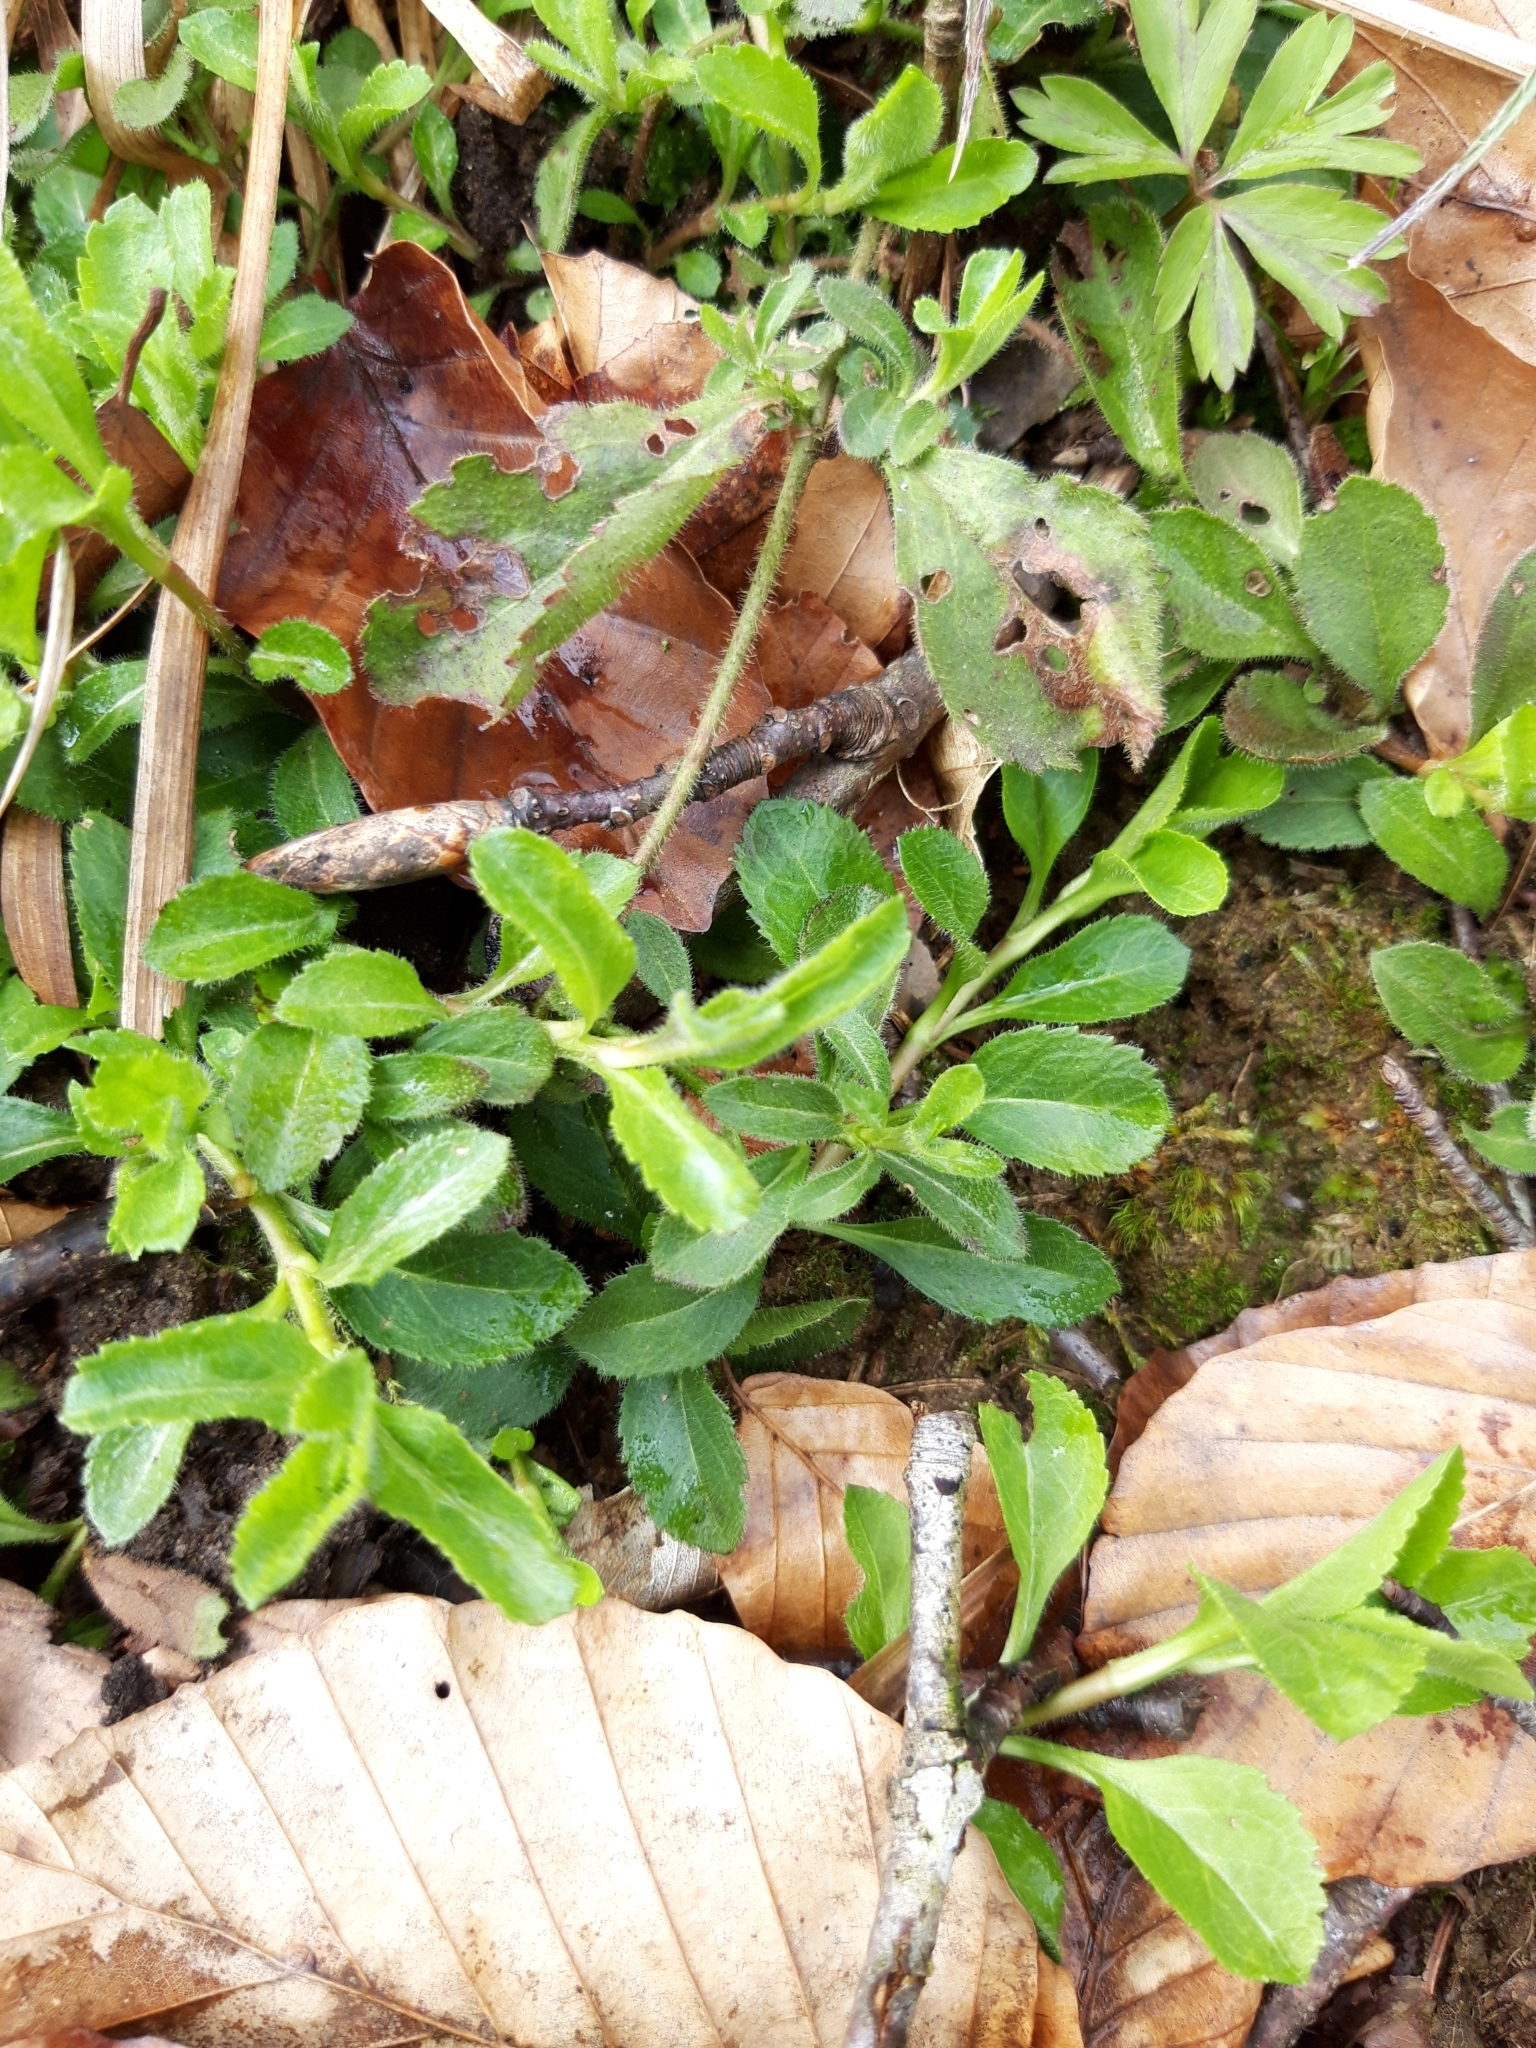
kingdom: Plantae
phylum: Tracheophyta
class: Magnoliopsida
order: Lamiales
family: Plantaginaceae
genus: Veronica
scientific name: Veronica officinalis
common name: Common speedwell
